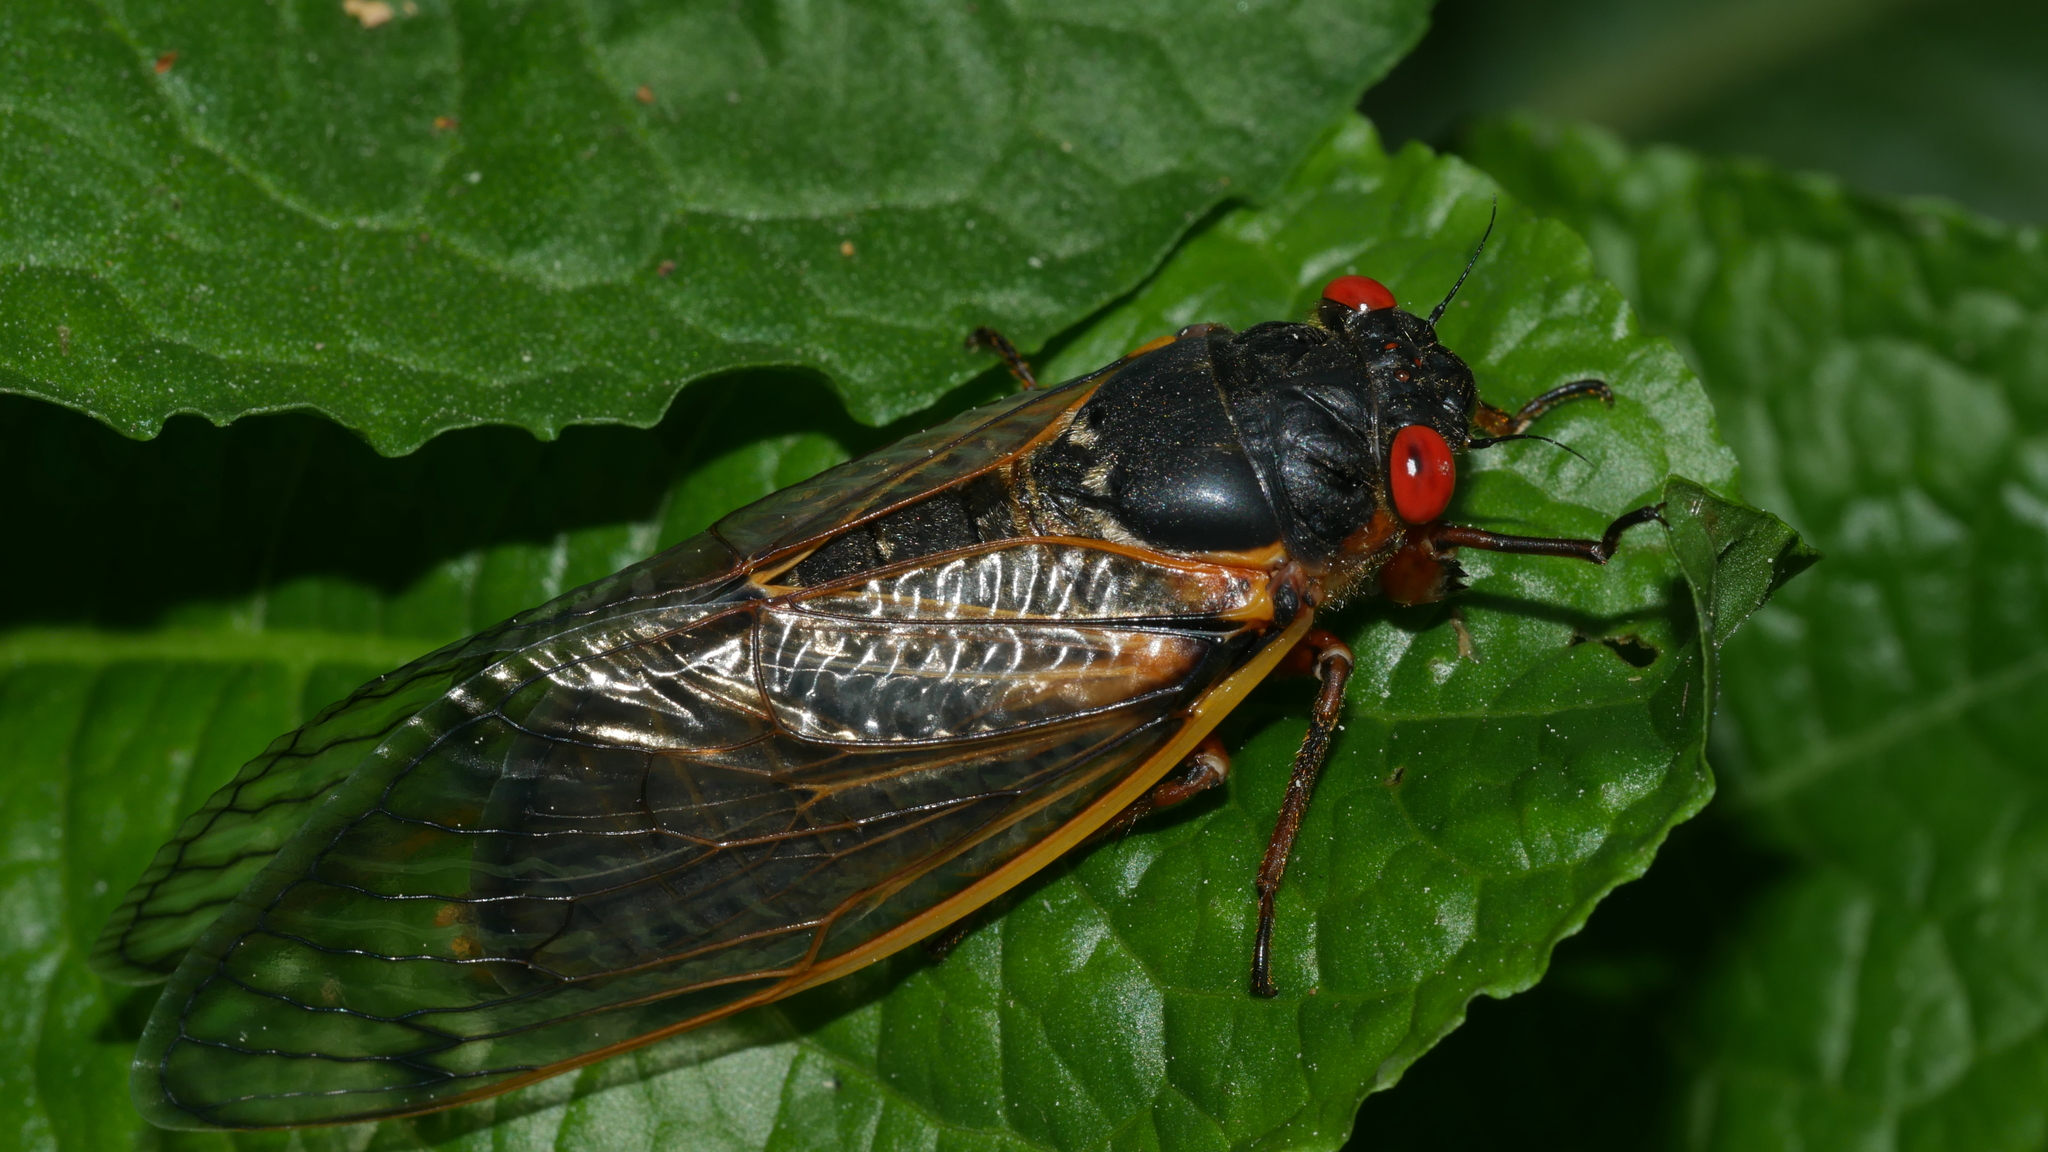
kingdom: Animalia
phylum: Arthropoda
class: Insecta
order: Hemiptera
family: Cicadidae
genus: Magicicada
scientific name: Magicicada septendecim
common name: Periodical cicada
